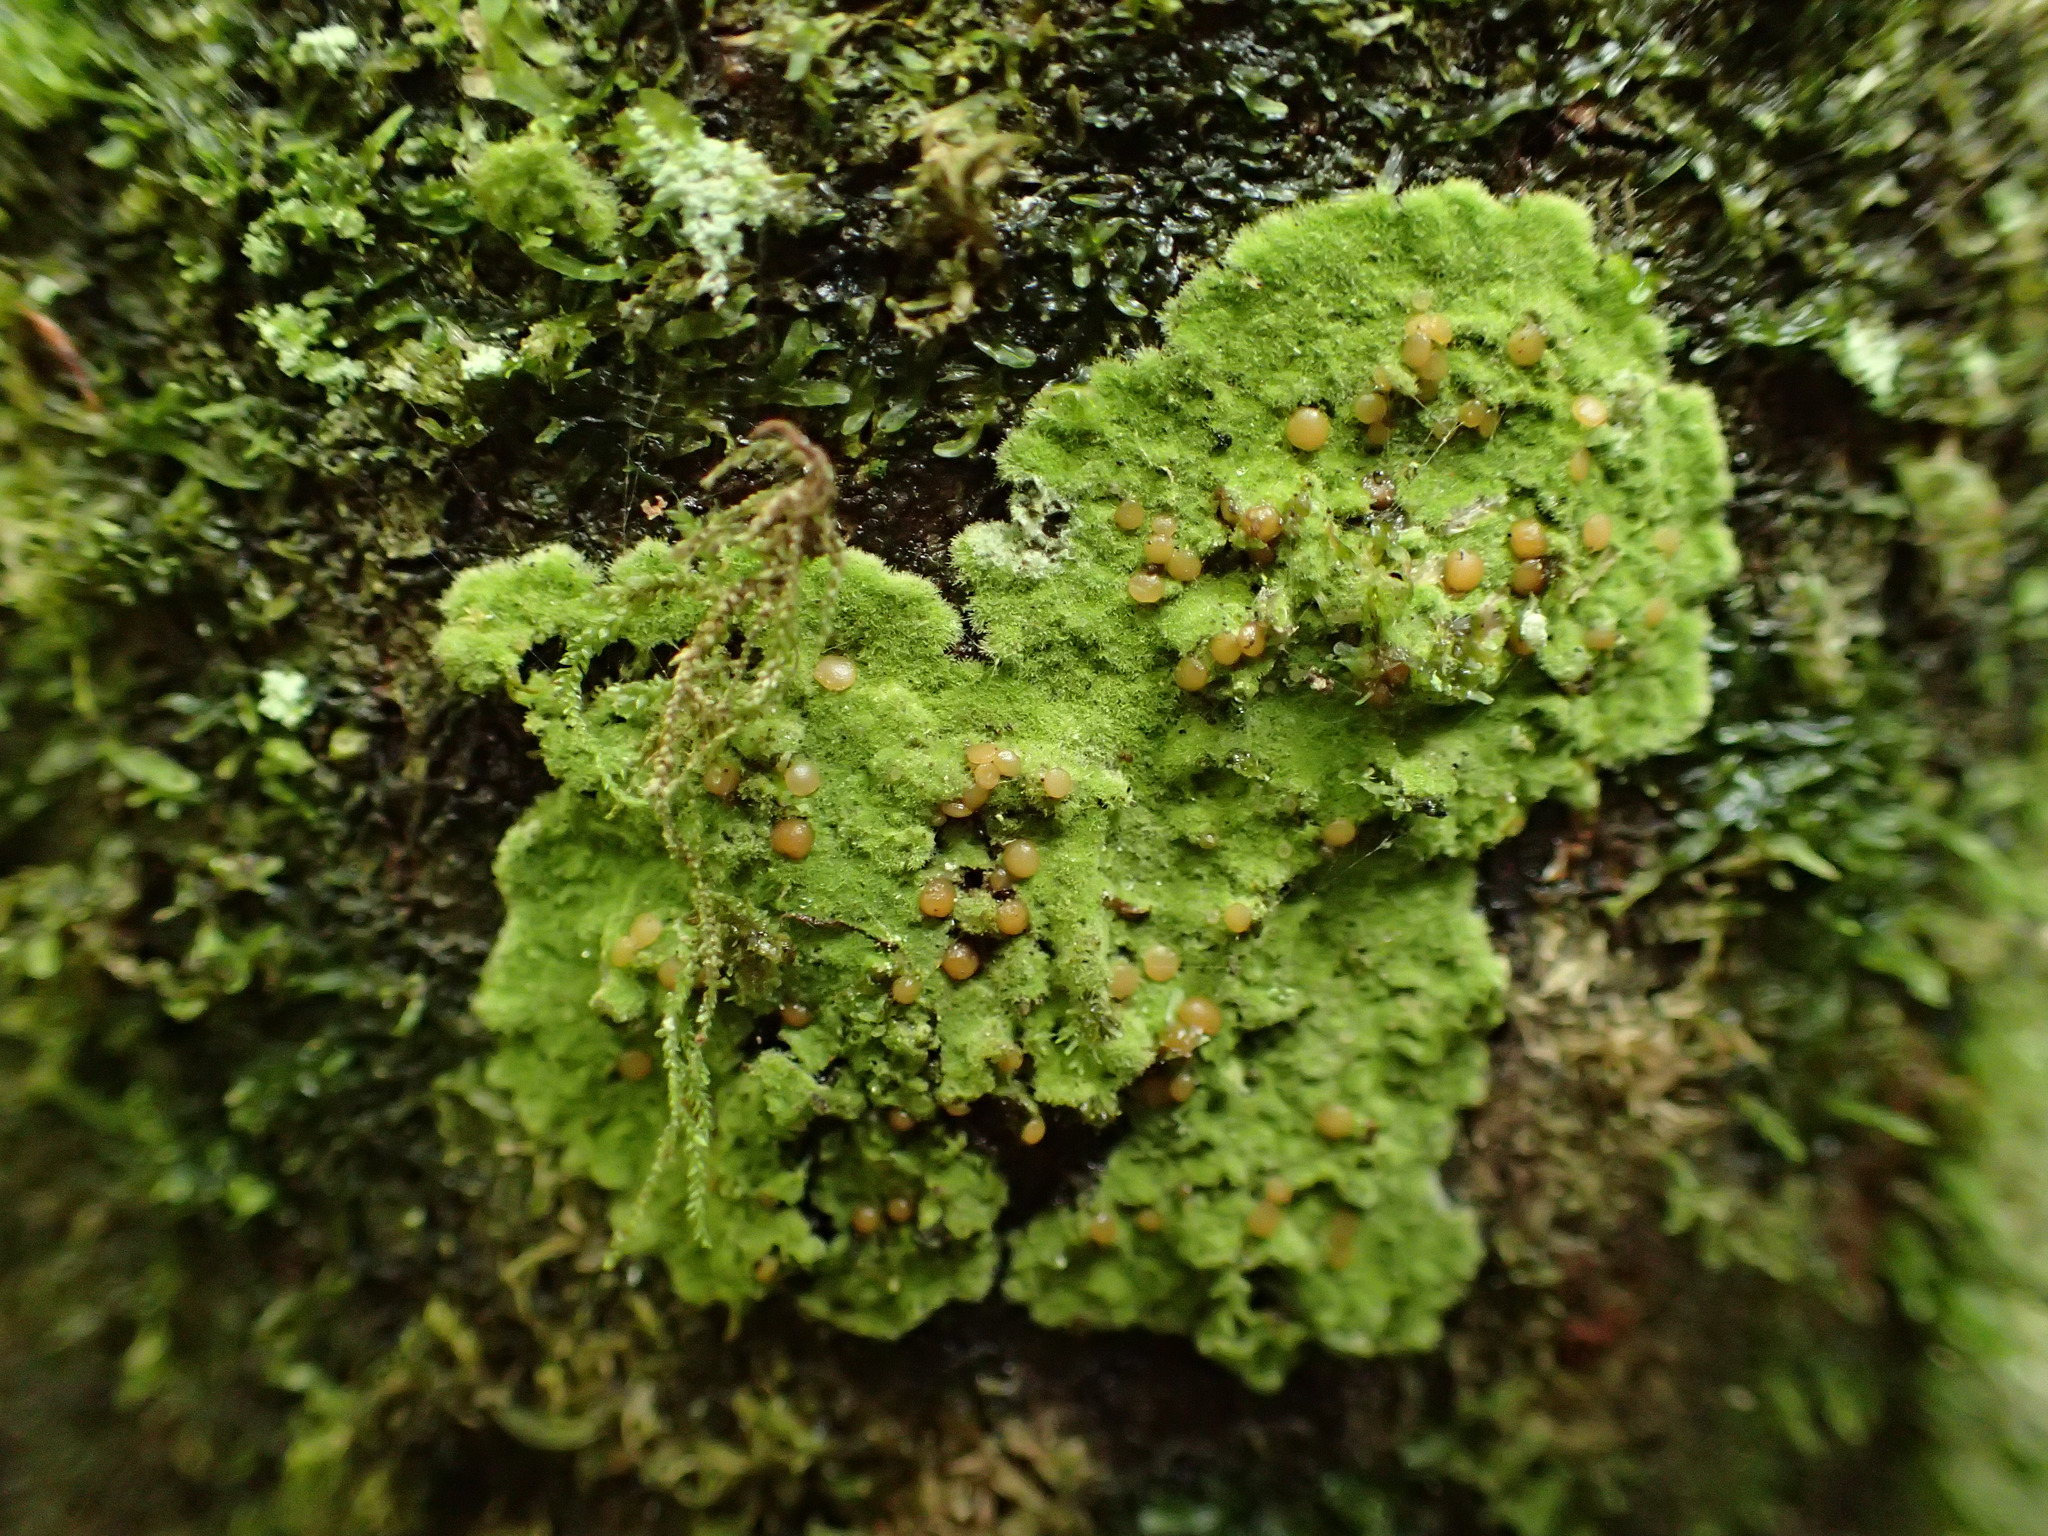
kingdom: Fungi
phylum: Ascomycota
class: Lecanoromycetes
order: Ostropales
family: Coenogoniaceae
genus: Coenogonium
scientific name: Coenogonium implexum
